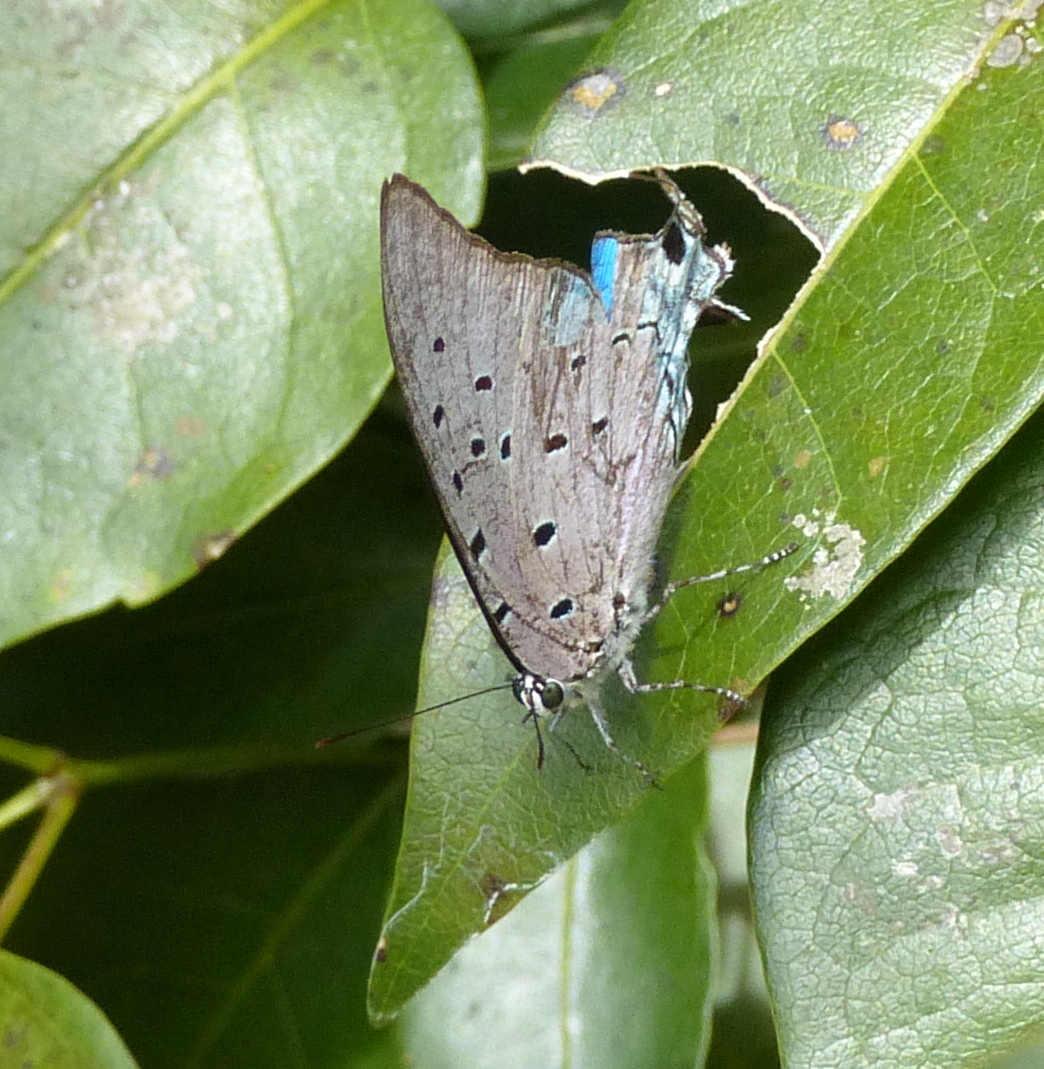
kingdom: Animalia
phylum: Arthropoda
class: Insecta
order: Lepidoptera
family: Lycaenidae
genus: Pseudolycaena
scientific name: Pseudolycaena marsyas
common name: Marsyas hairstreak
